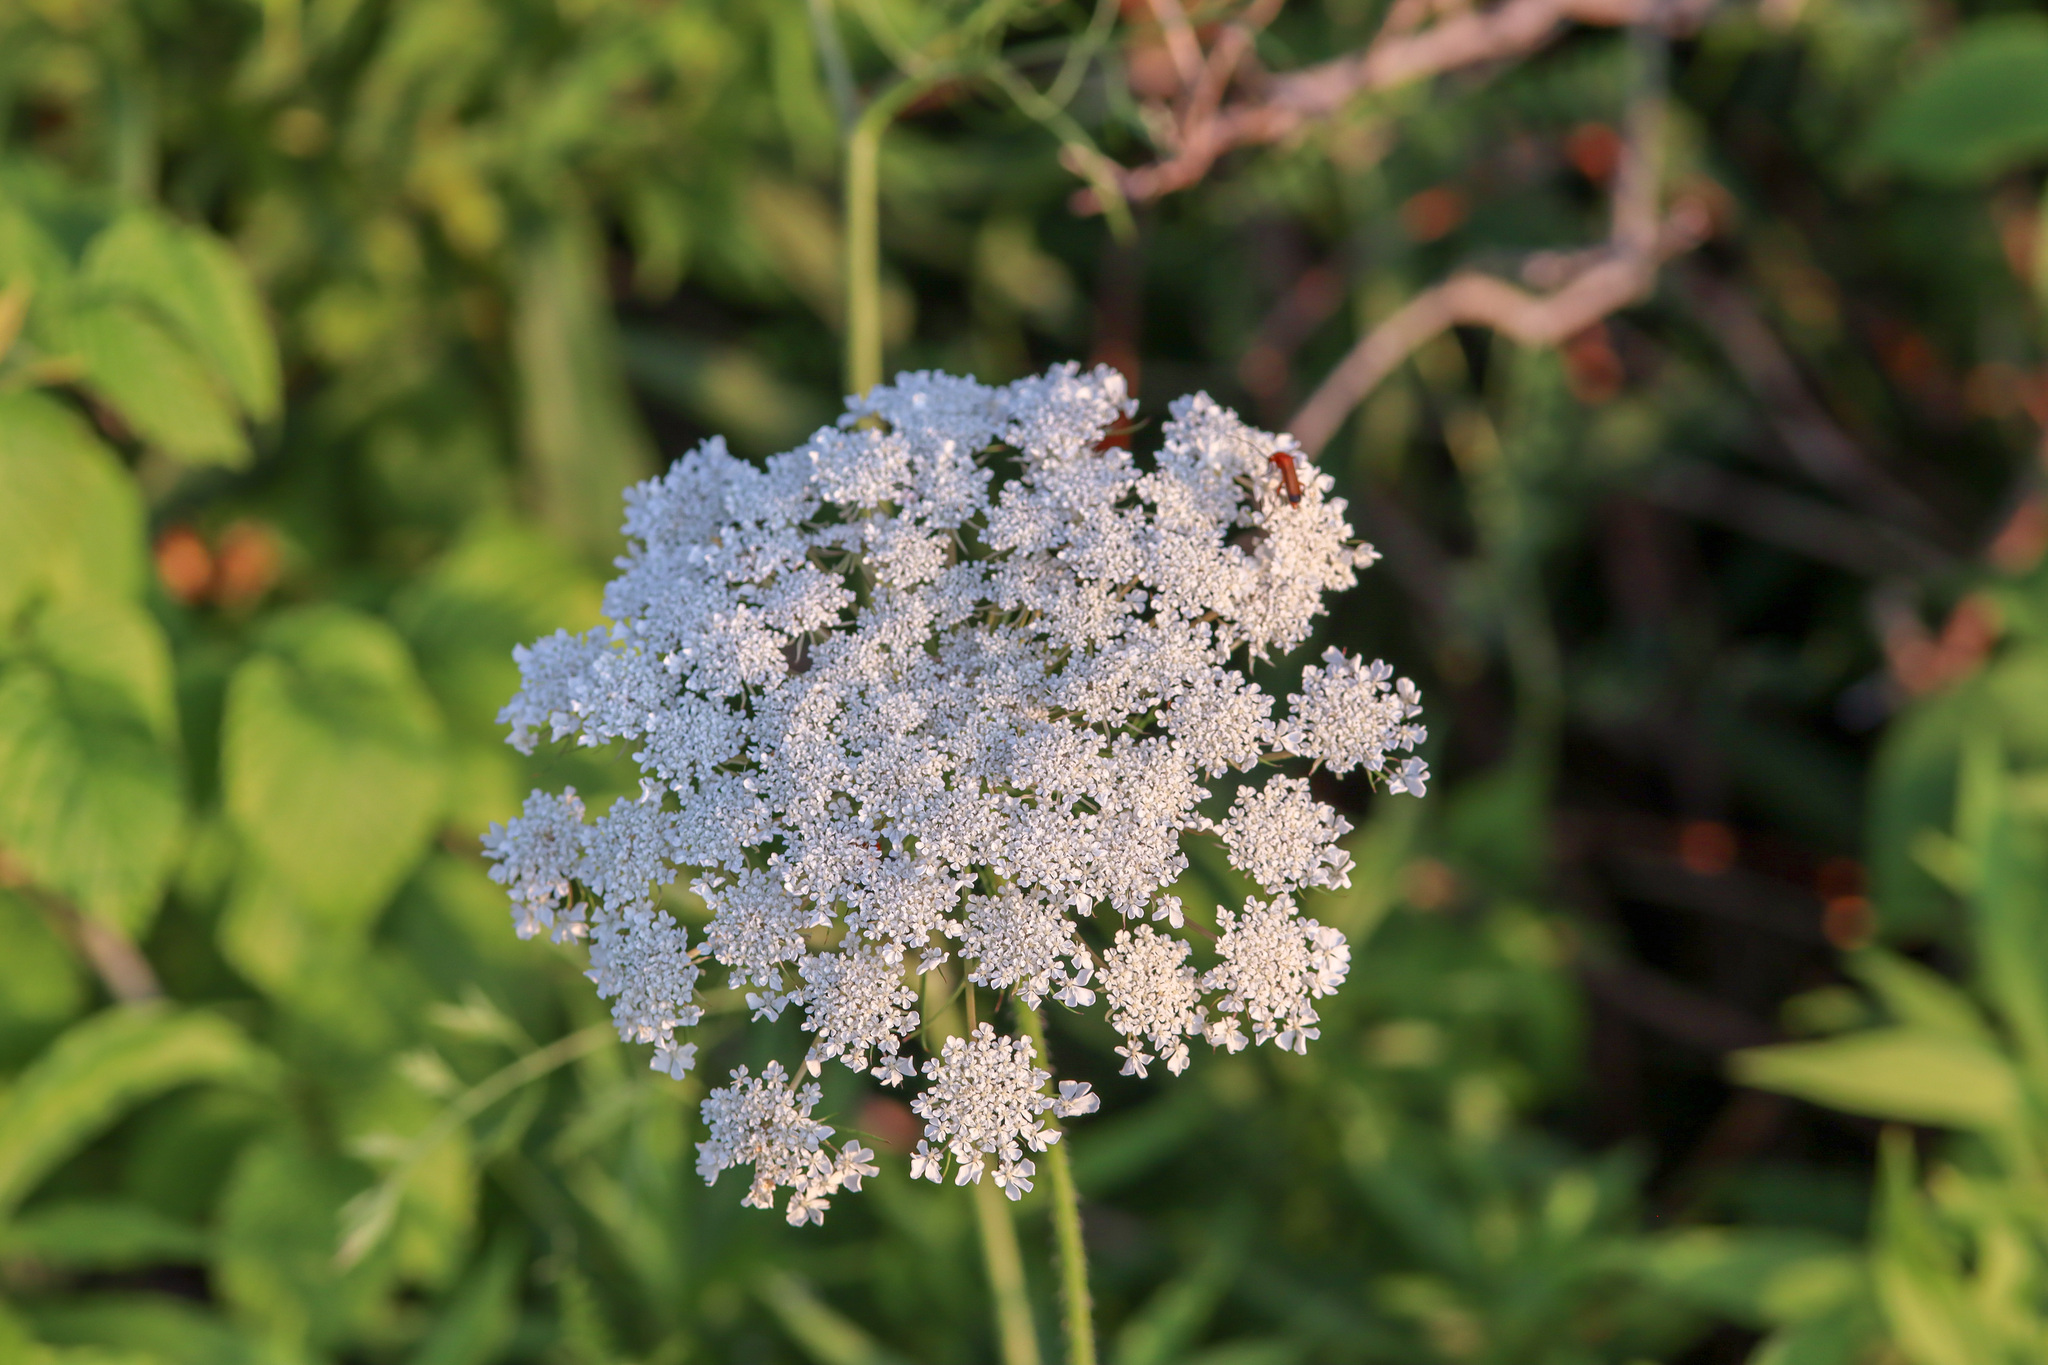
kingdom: Plantae
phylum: Tracheophyta
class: Magnoliopsida
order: Apiales
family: Apiaceae
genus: Daucus
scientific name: Daucus carota
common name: Wild carrot
